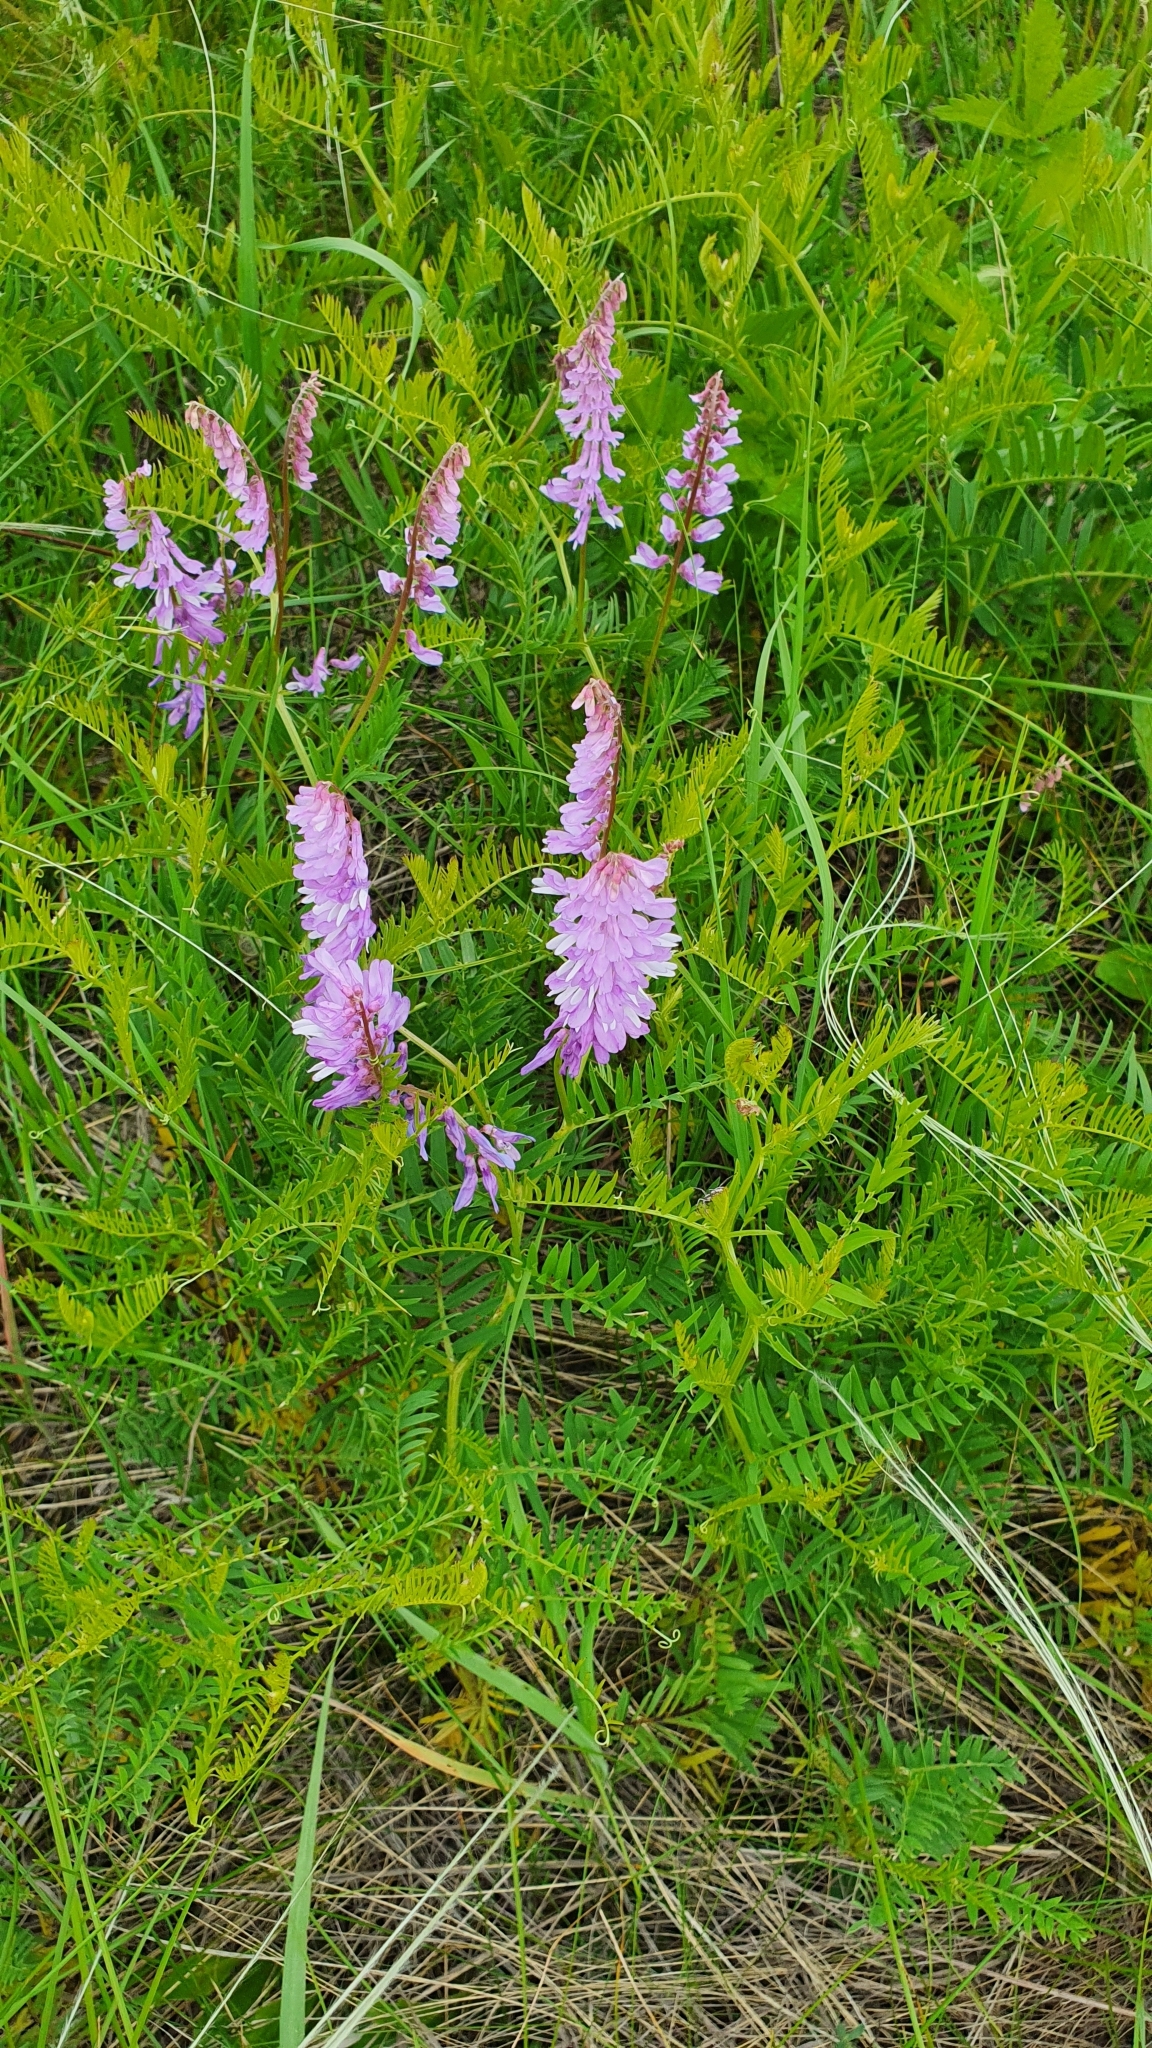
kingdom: Plantae
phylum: Tracheophyta
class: Magnoliopsida
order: Fabales
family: Fabaceae
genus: Vicia
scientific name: Vicia tenuifolia
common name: Fine-leaved vetch
